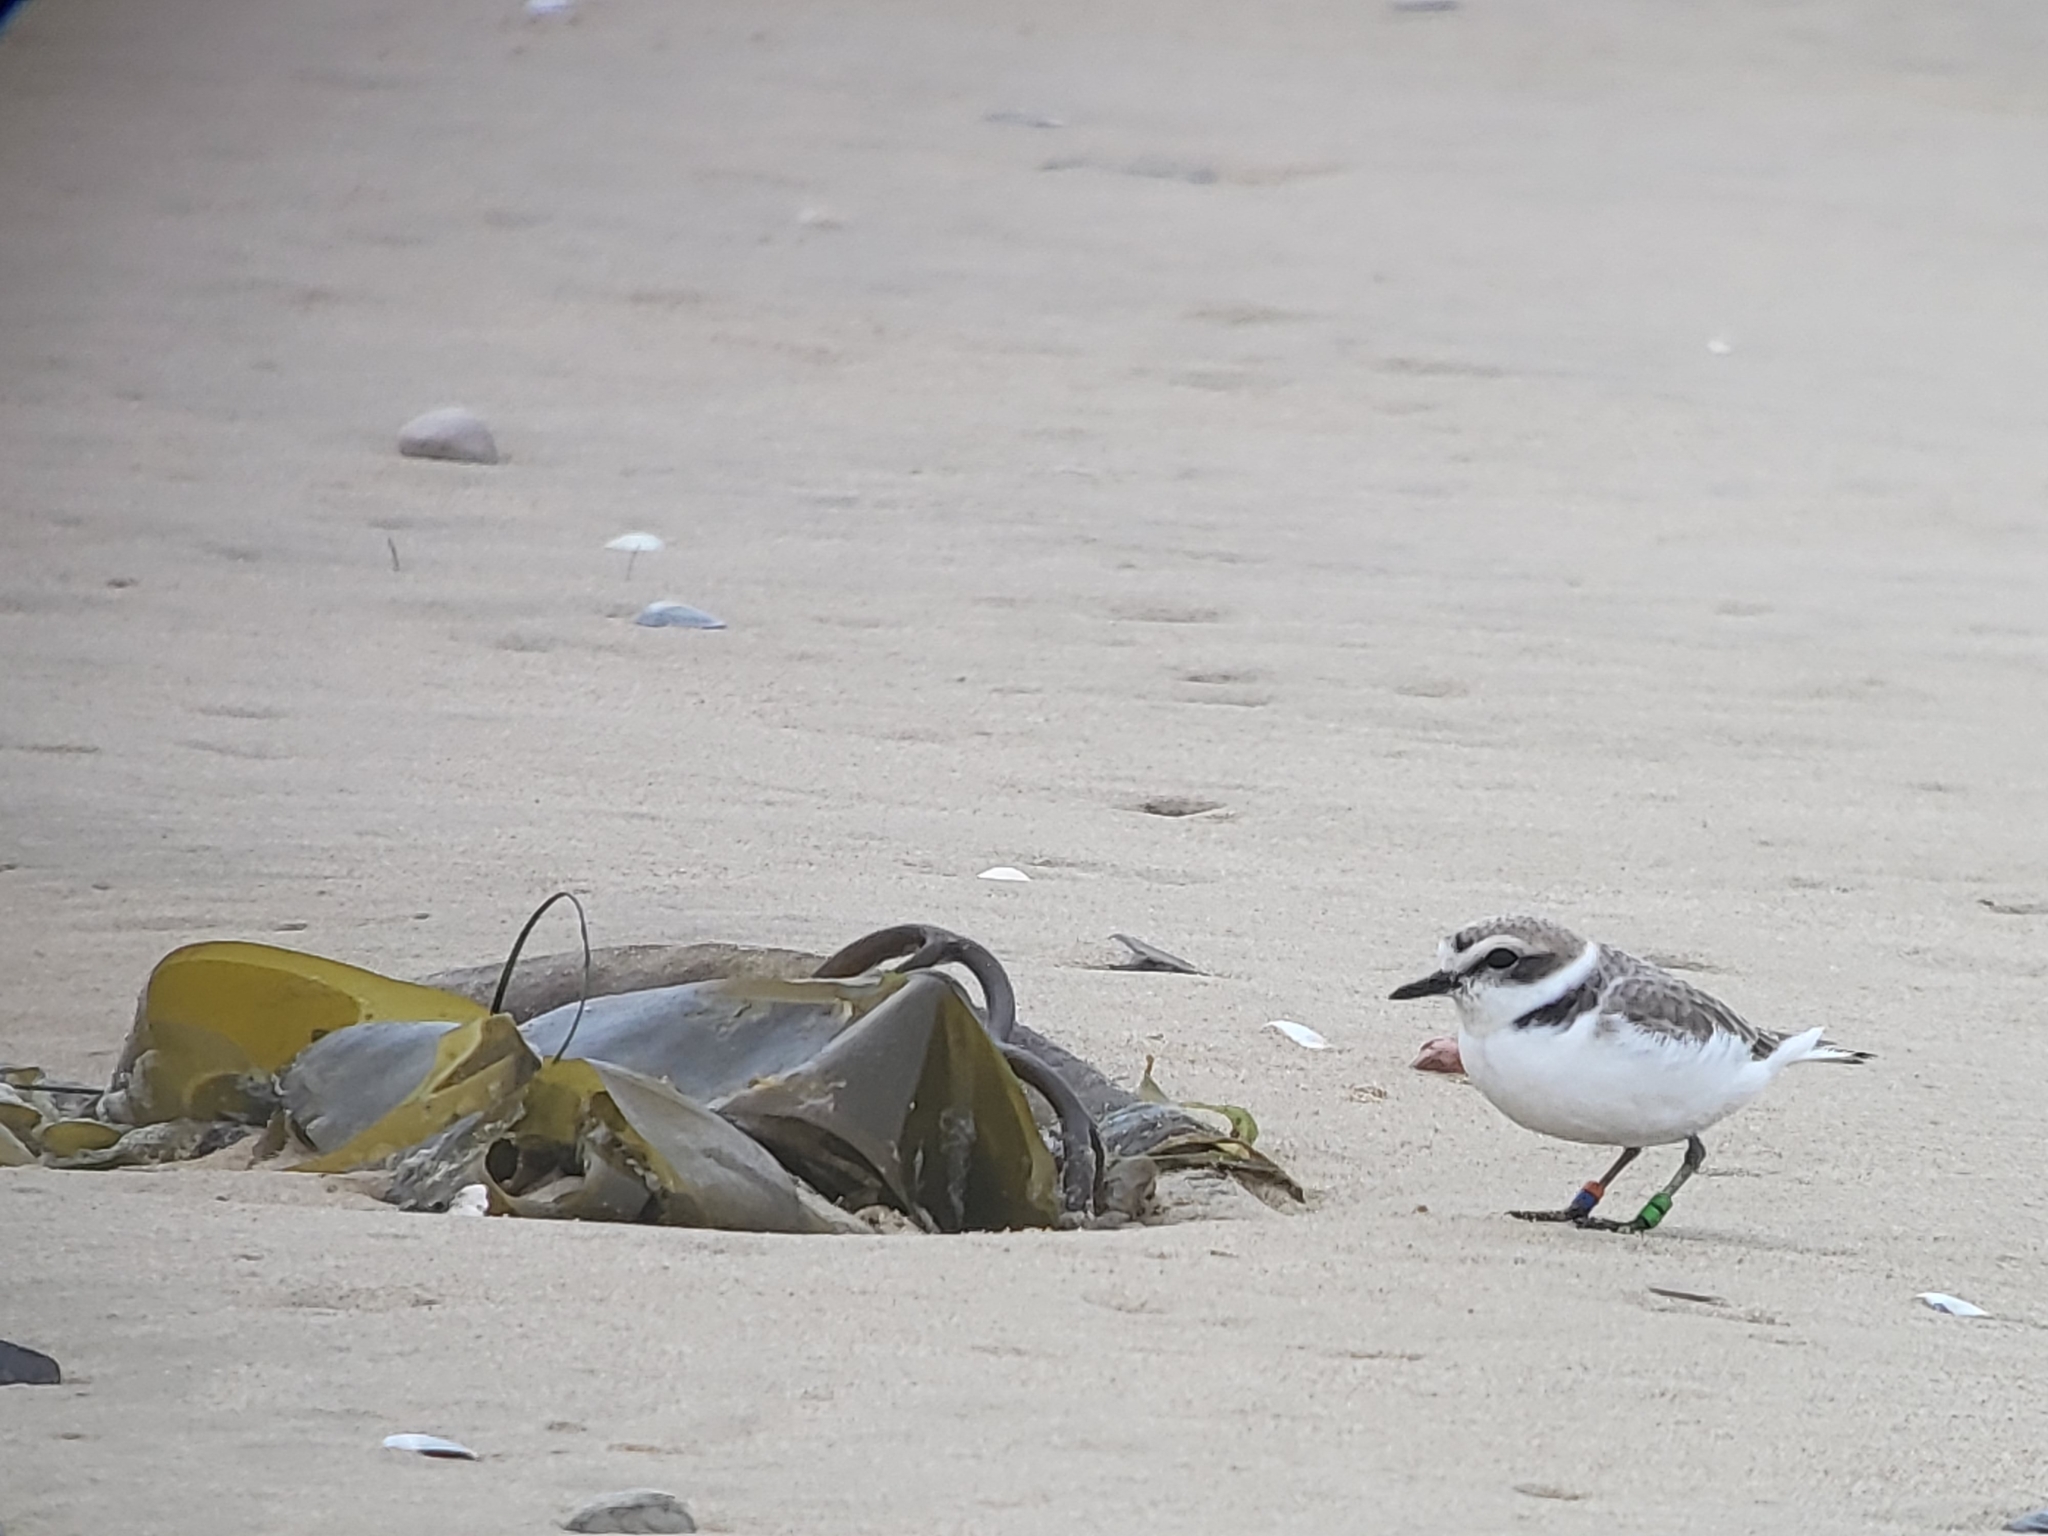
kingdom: Animalia
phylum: Chordata
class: Aves
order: Charadriiformes
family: Charadriidae
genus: Anarhynchus
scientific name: Anarhynchus
